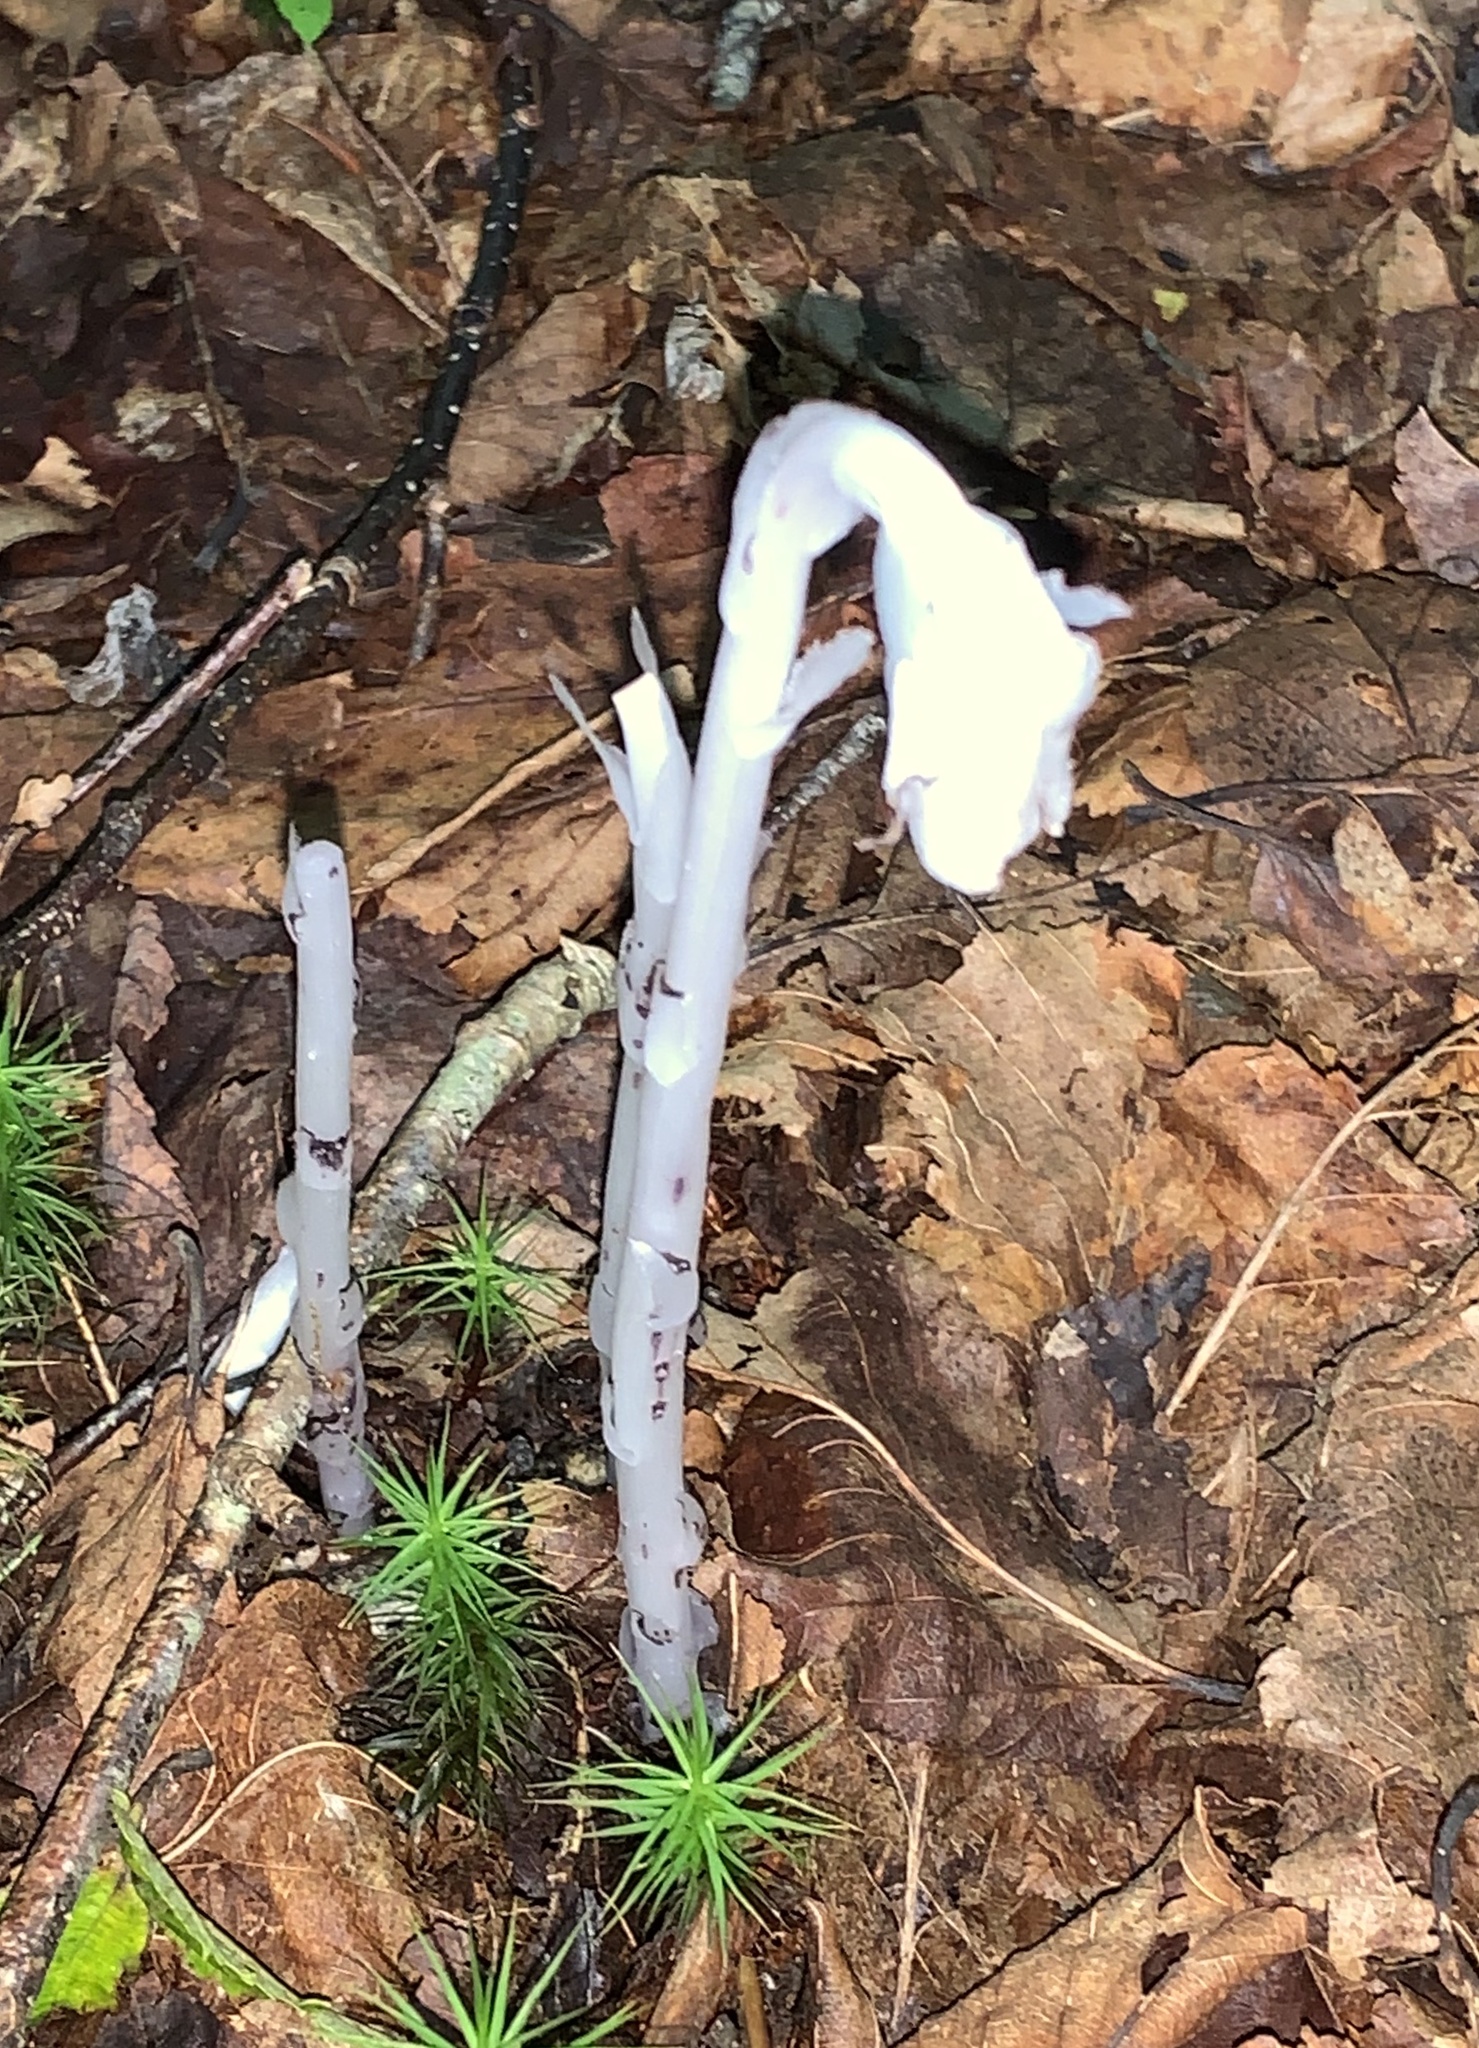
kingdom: Plantae
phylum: Tracheophyta
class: Magnoliopsida
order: Ericales
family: Ericaceae
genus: Monotropa
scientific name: Monotropa uniflora
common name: Convulsion root
